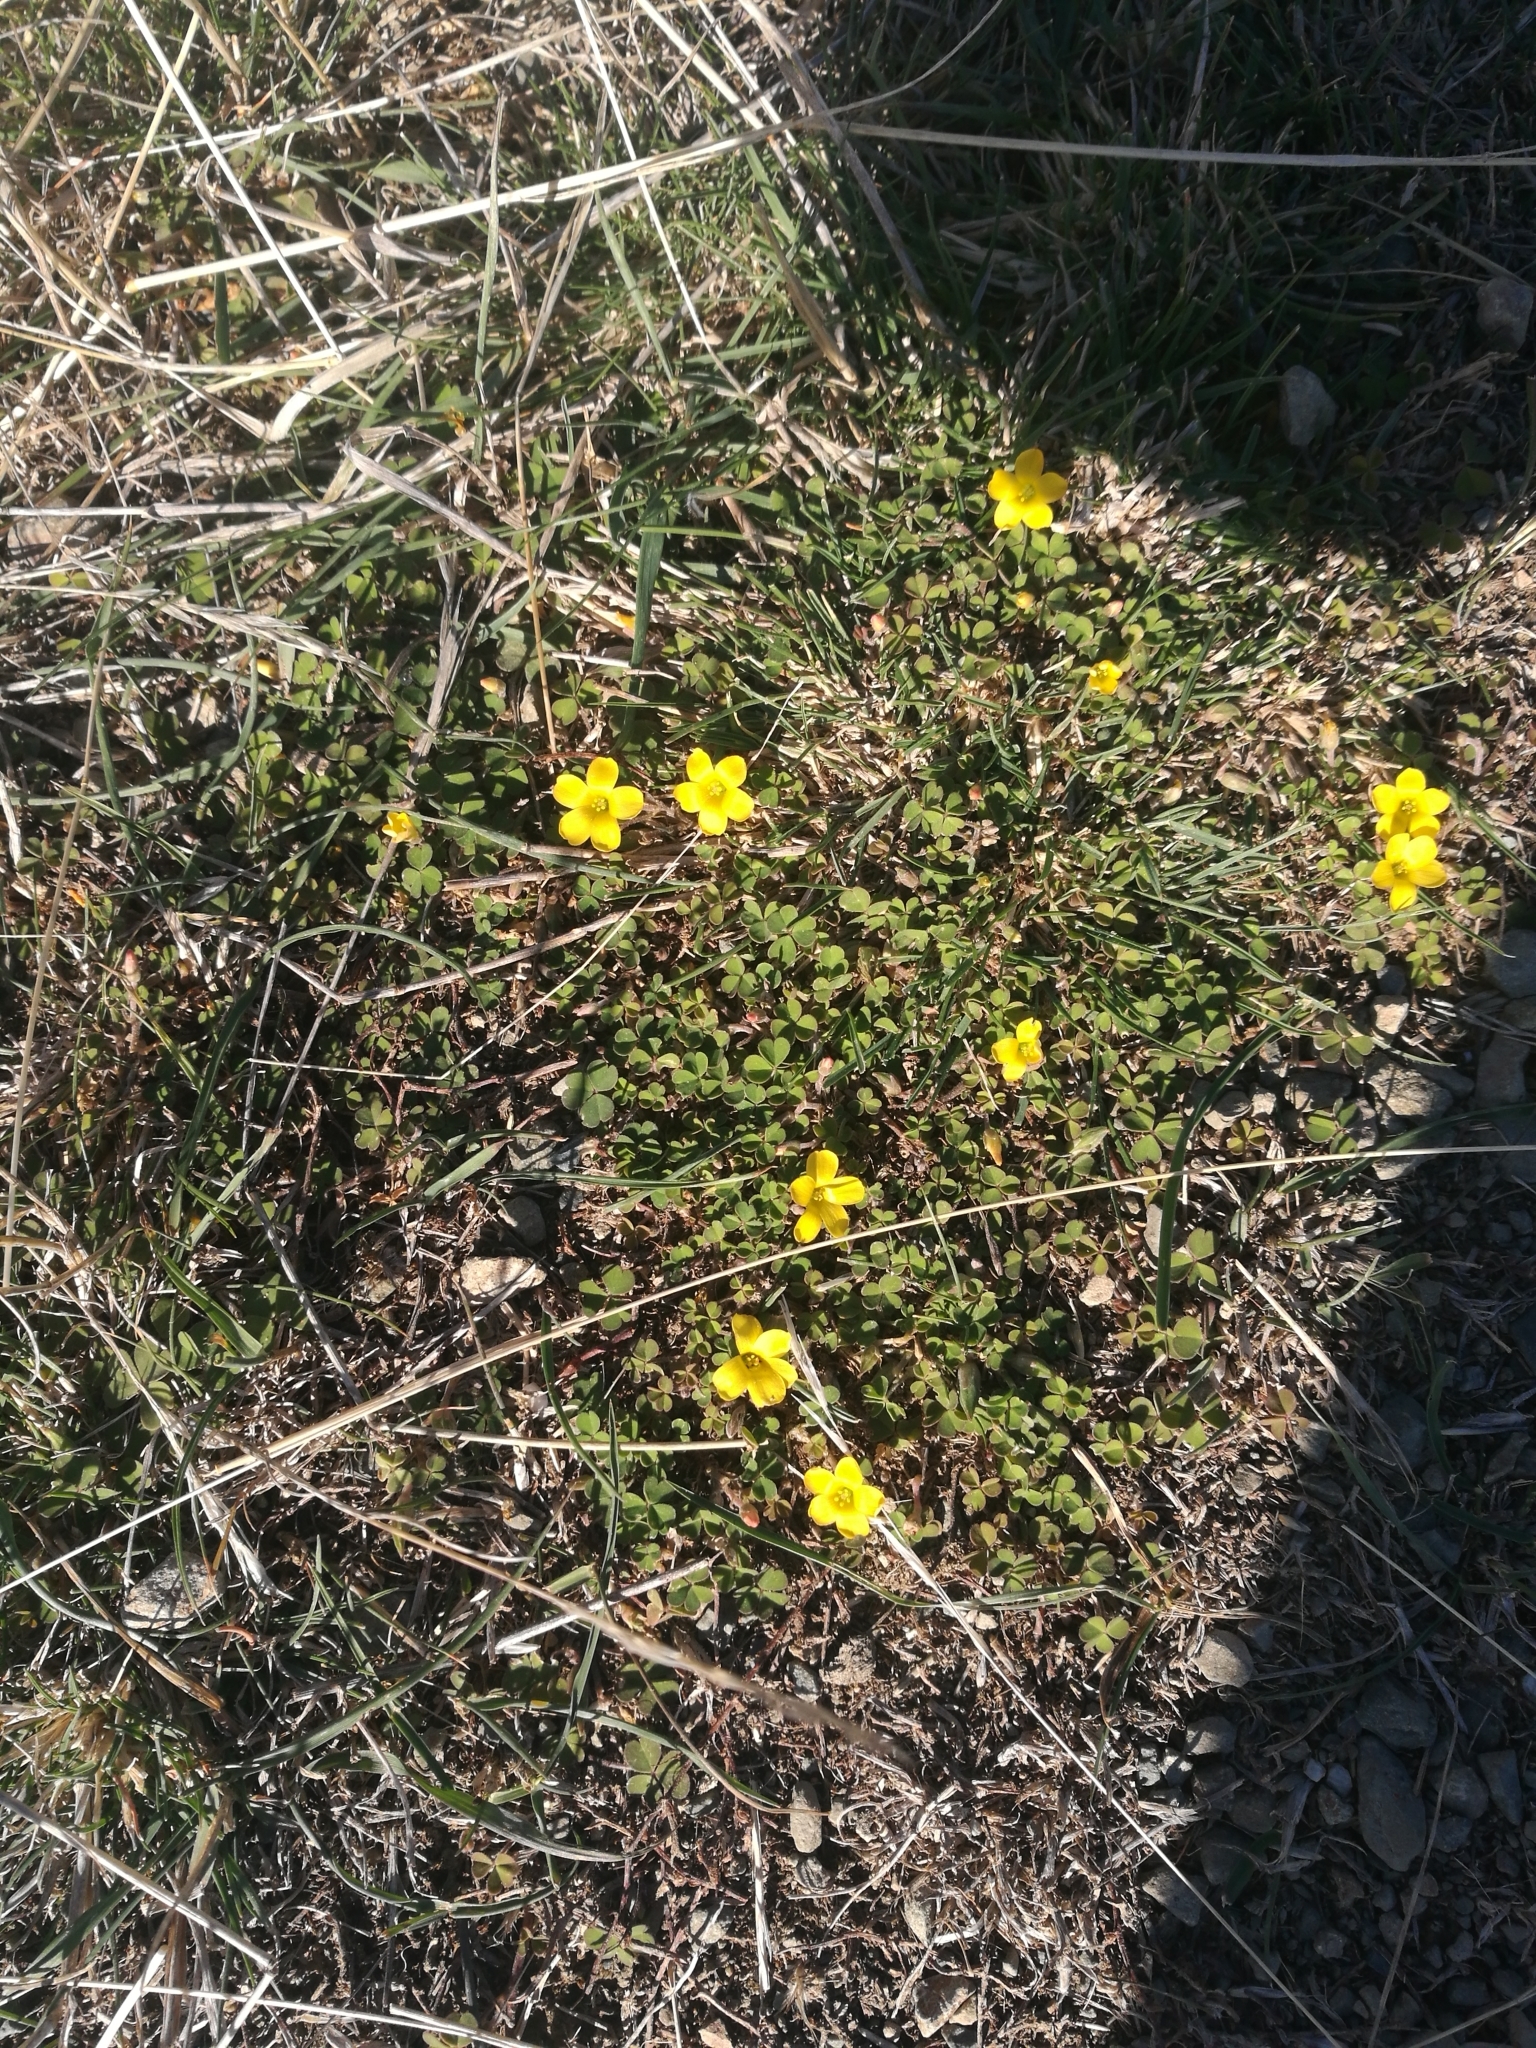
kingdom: Plantae
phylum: Tracheophyta
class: Magnoliopsida
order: Oxalidales
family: Oxalidaceae
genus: Oxalis
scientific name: Oxalis exilis
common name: Least yellow-sorrel
